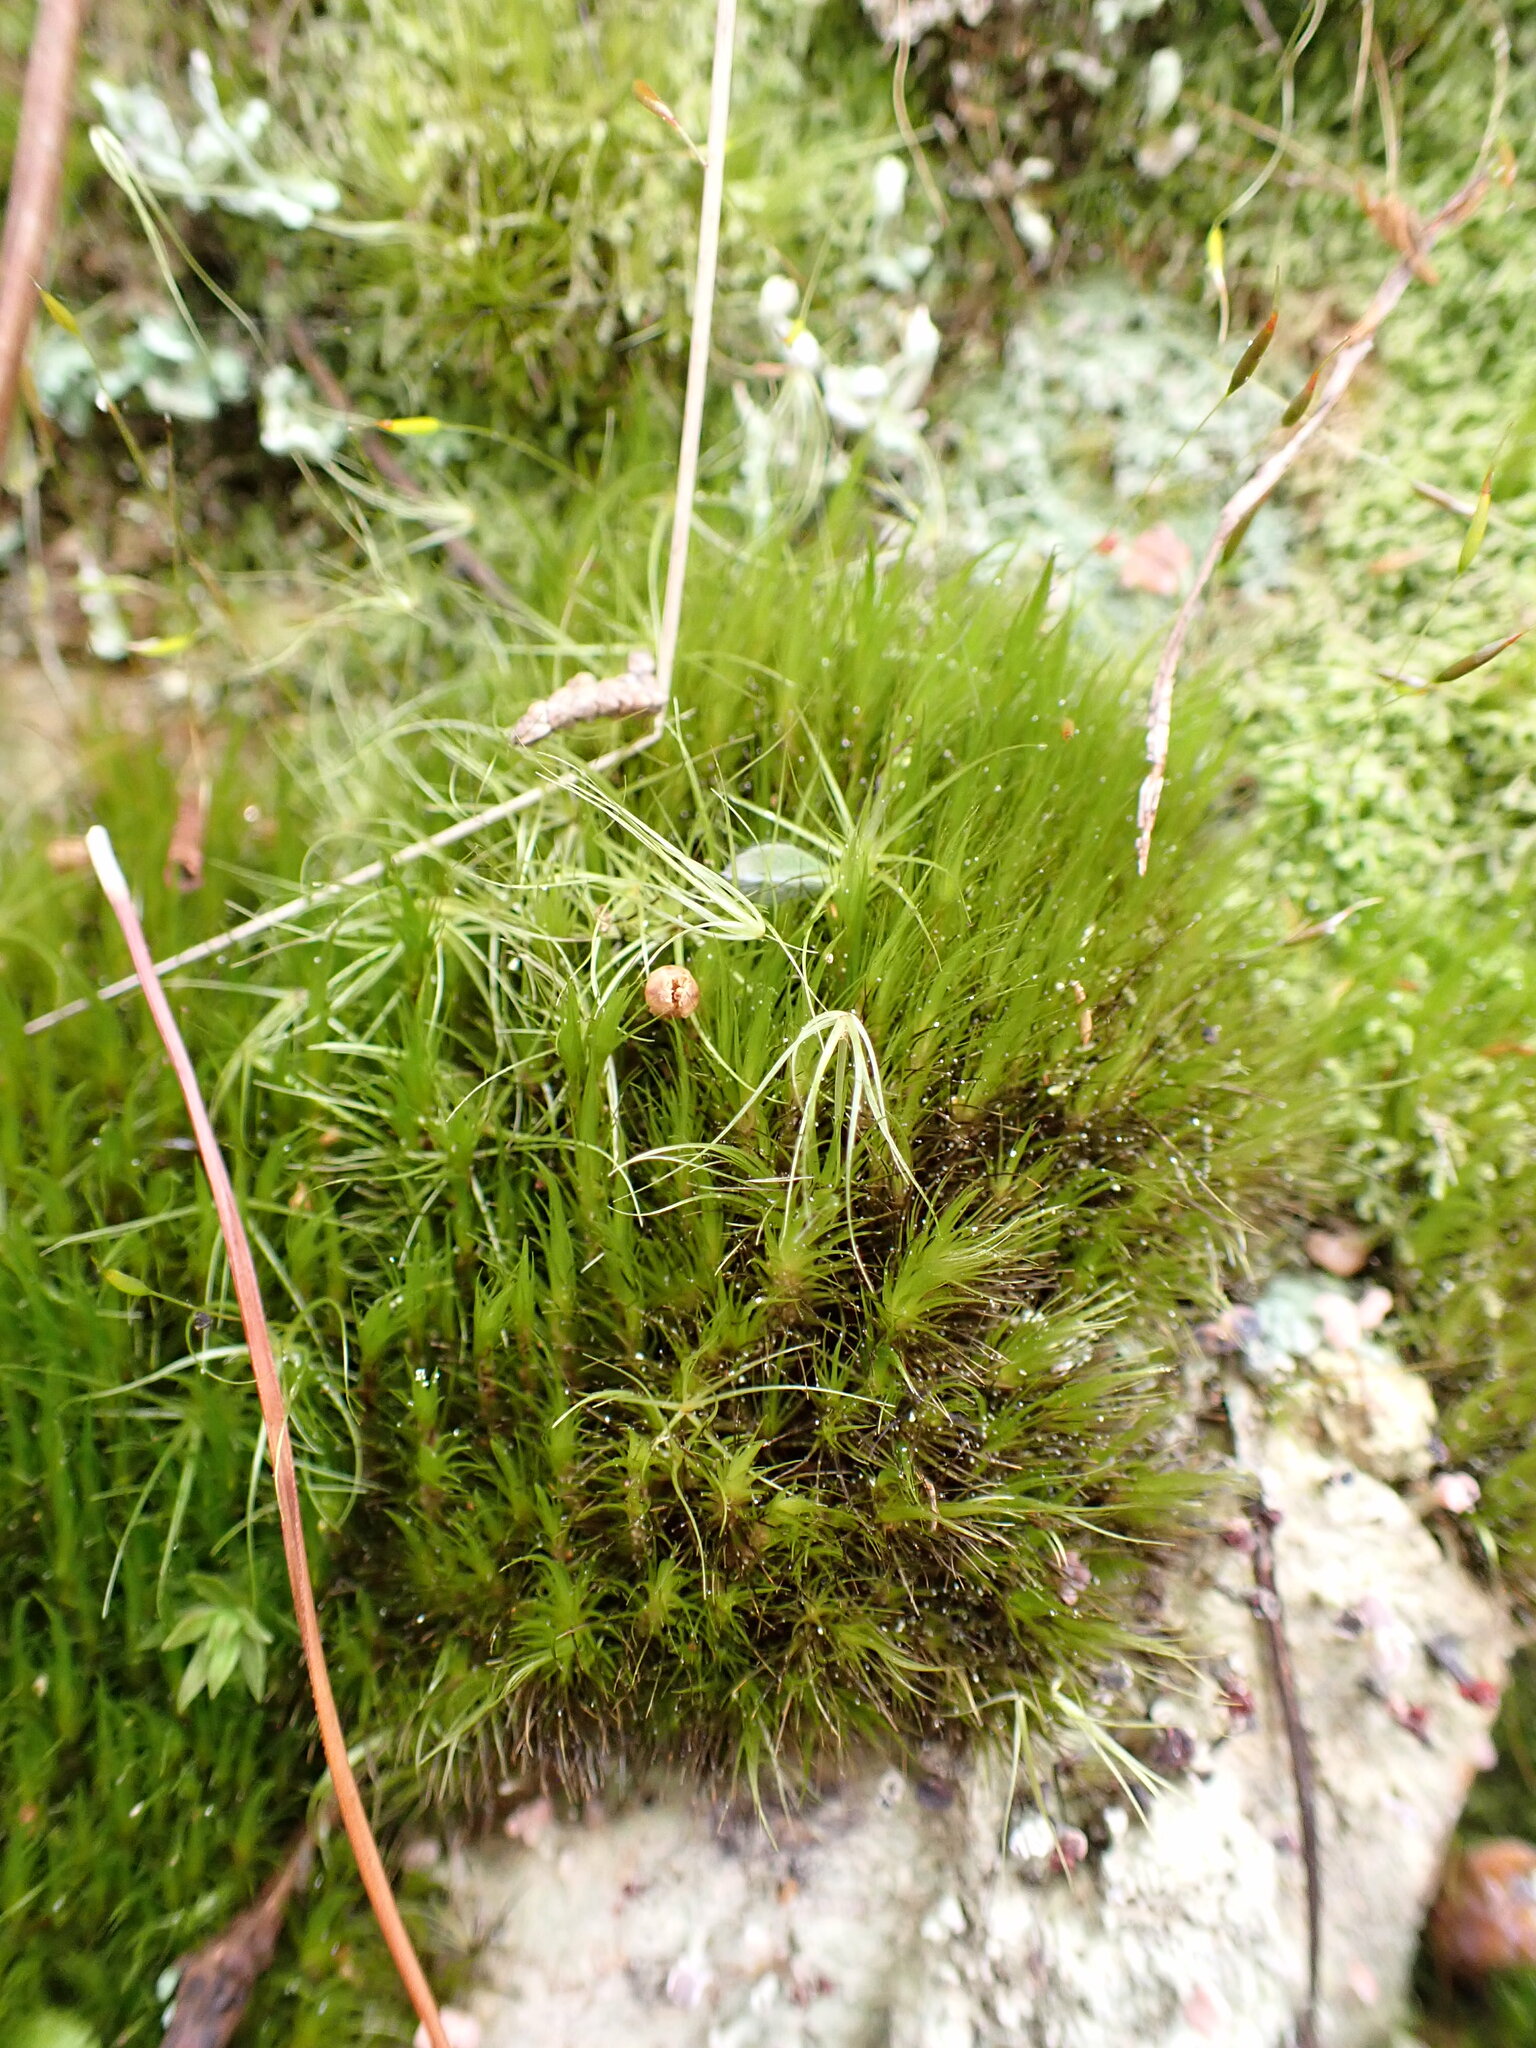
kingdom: Plantae
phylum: Bryophyta
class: Bryopsida
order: Dicranales
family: Leucobryaceae
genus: Campylopus
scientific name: Campylopus clavatus
